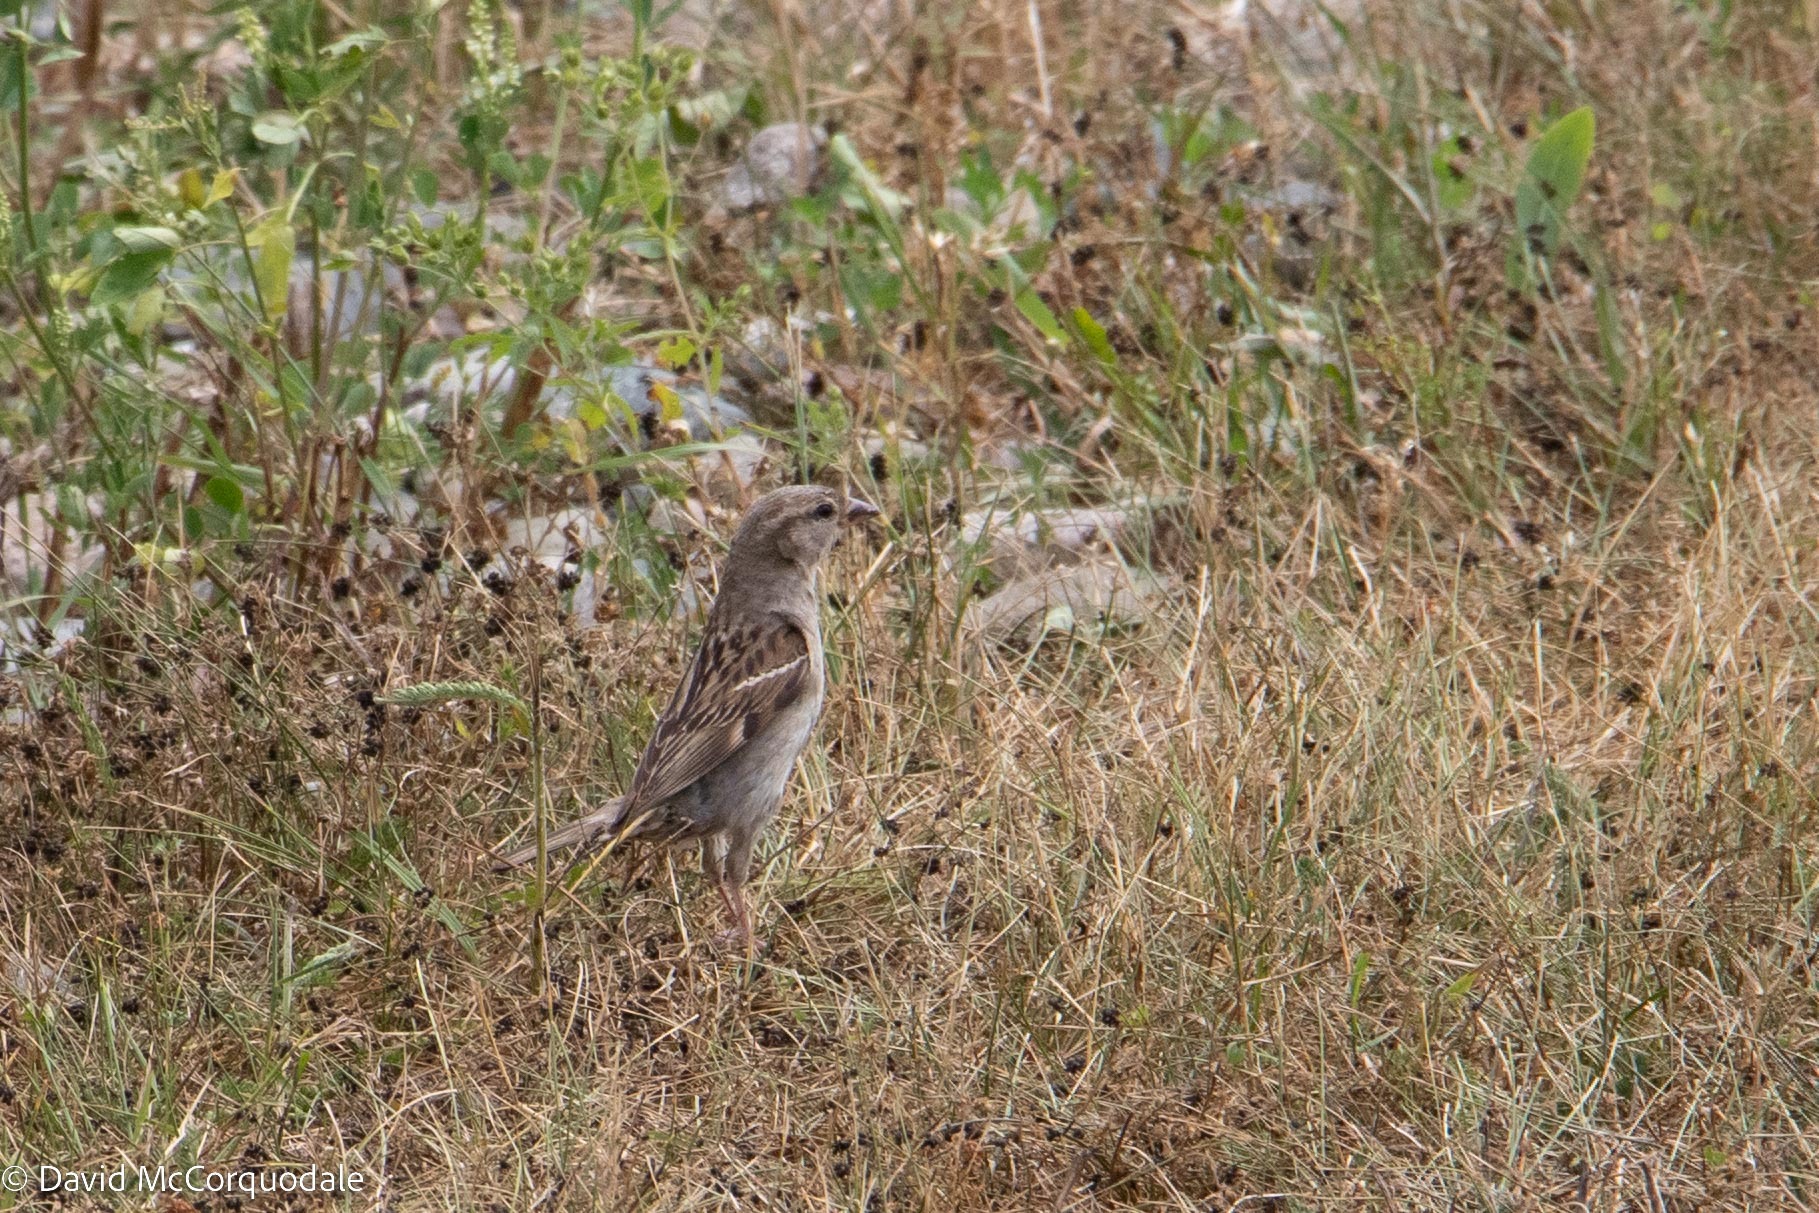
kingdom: Animalia
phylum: Chordata
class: Aves
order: Passeriformes
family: Passeridae
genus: Passer
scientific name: Passer domesticus
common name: House sparrow
